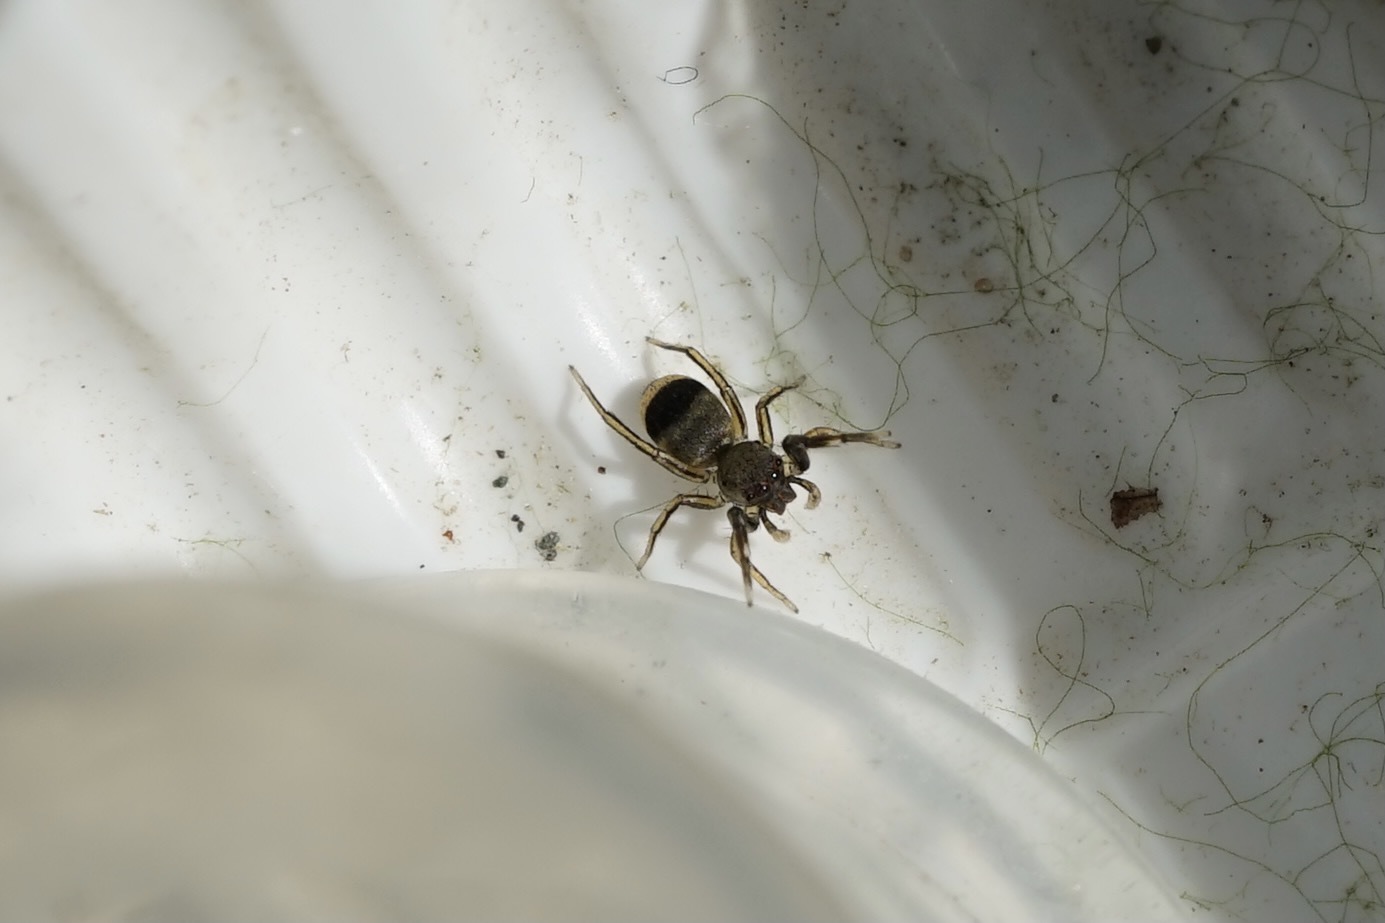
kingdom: Animalia
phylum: Arthropoda
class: Arachnida
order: Araneae
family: Salticidae
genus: Siler
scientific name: Siler cupreus
